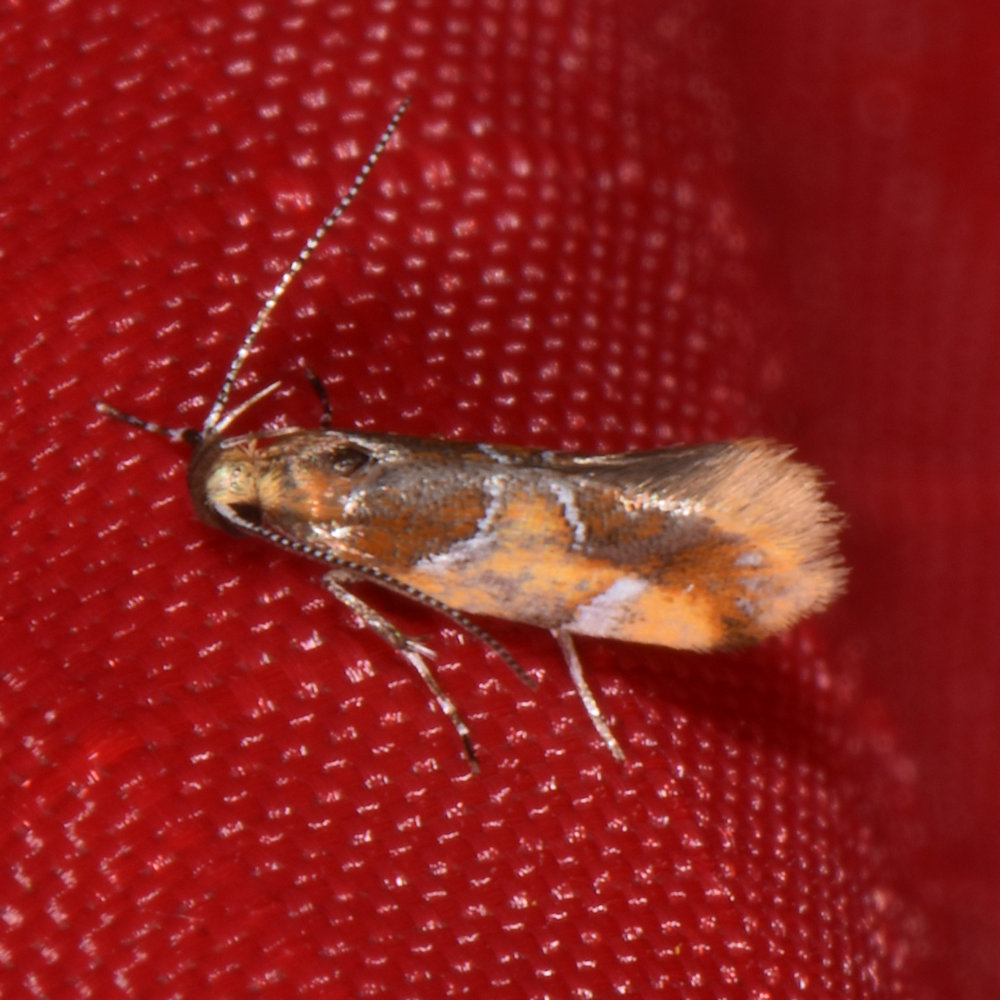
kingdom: Animalia
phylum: Arthropoda
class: Insecta
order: Lepidoptera
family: Oecophoridae
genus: Callima
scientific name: Callima argenticinctella
